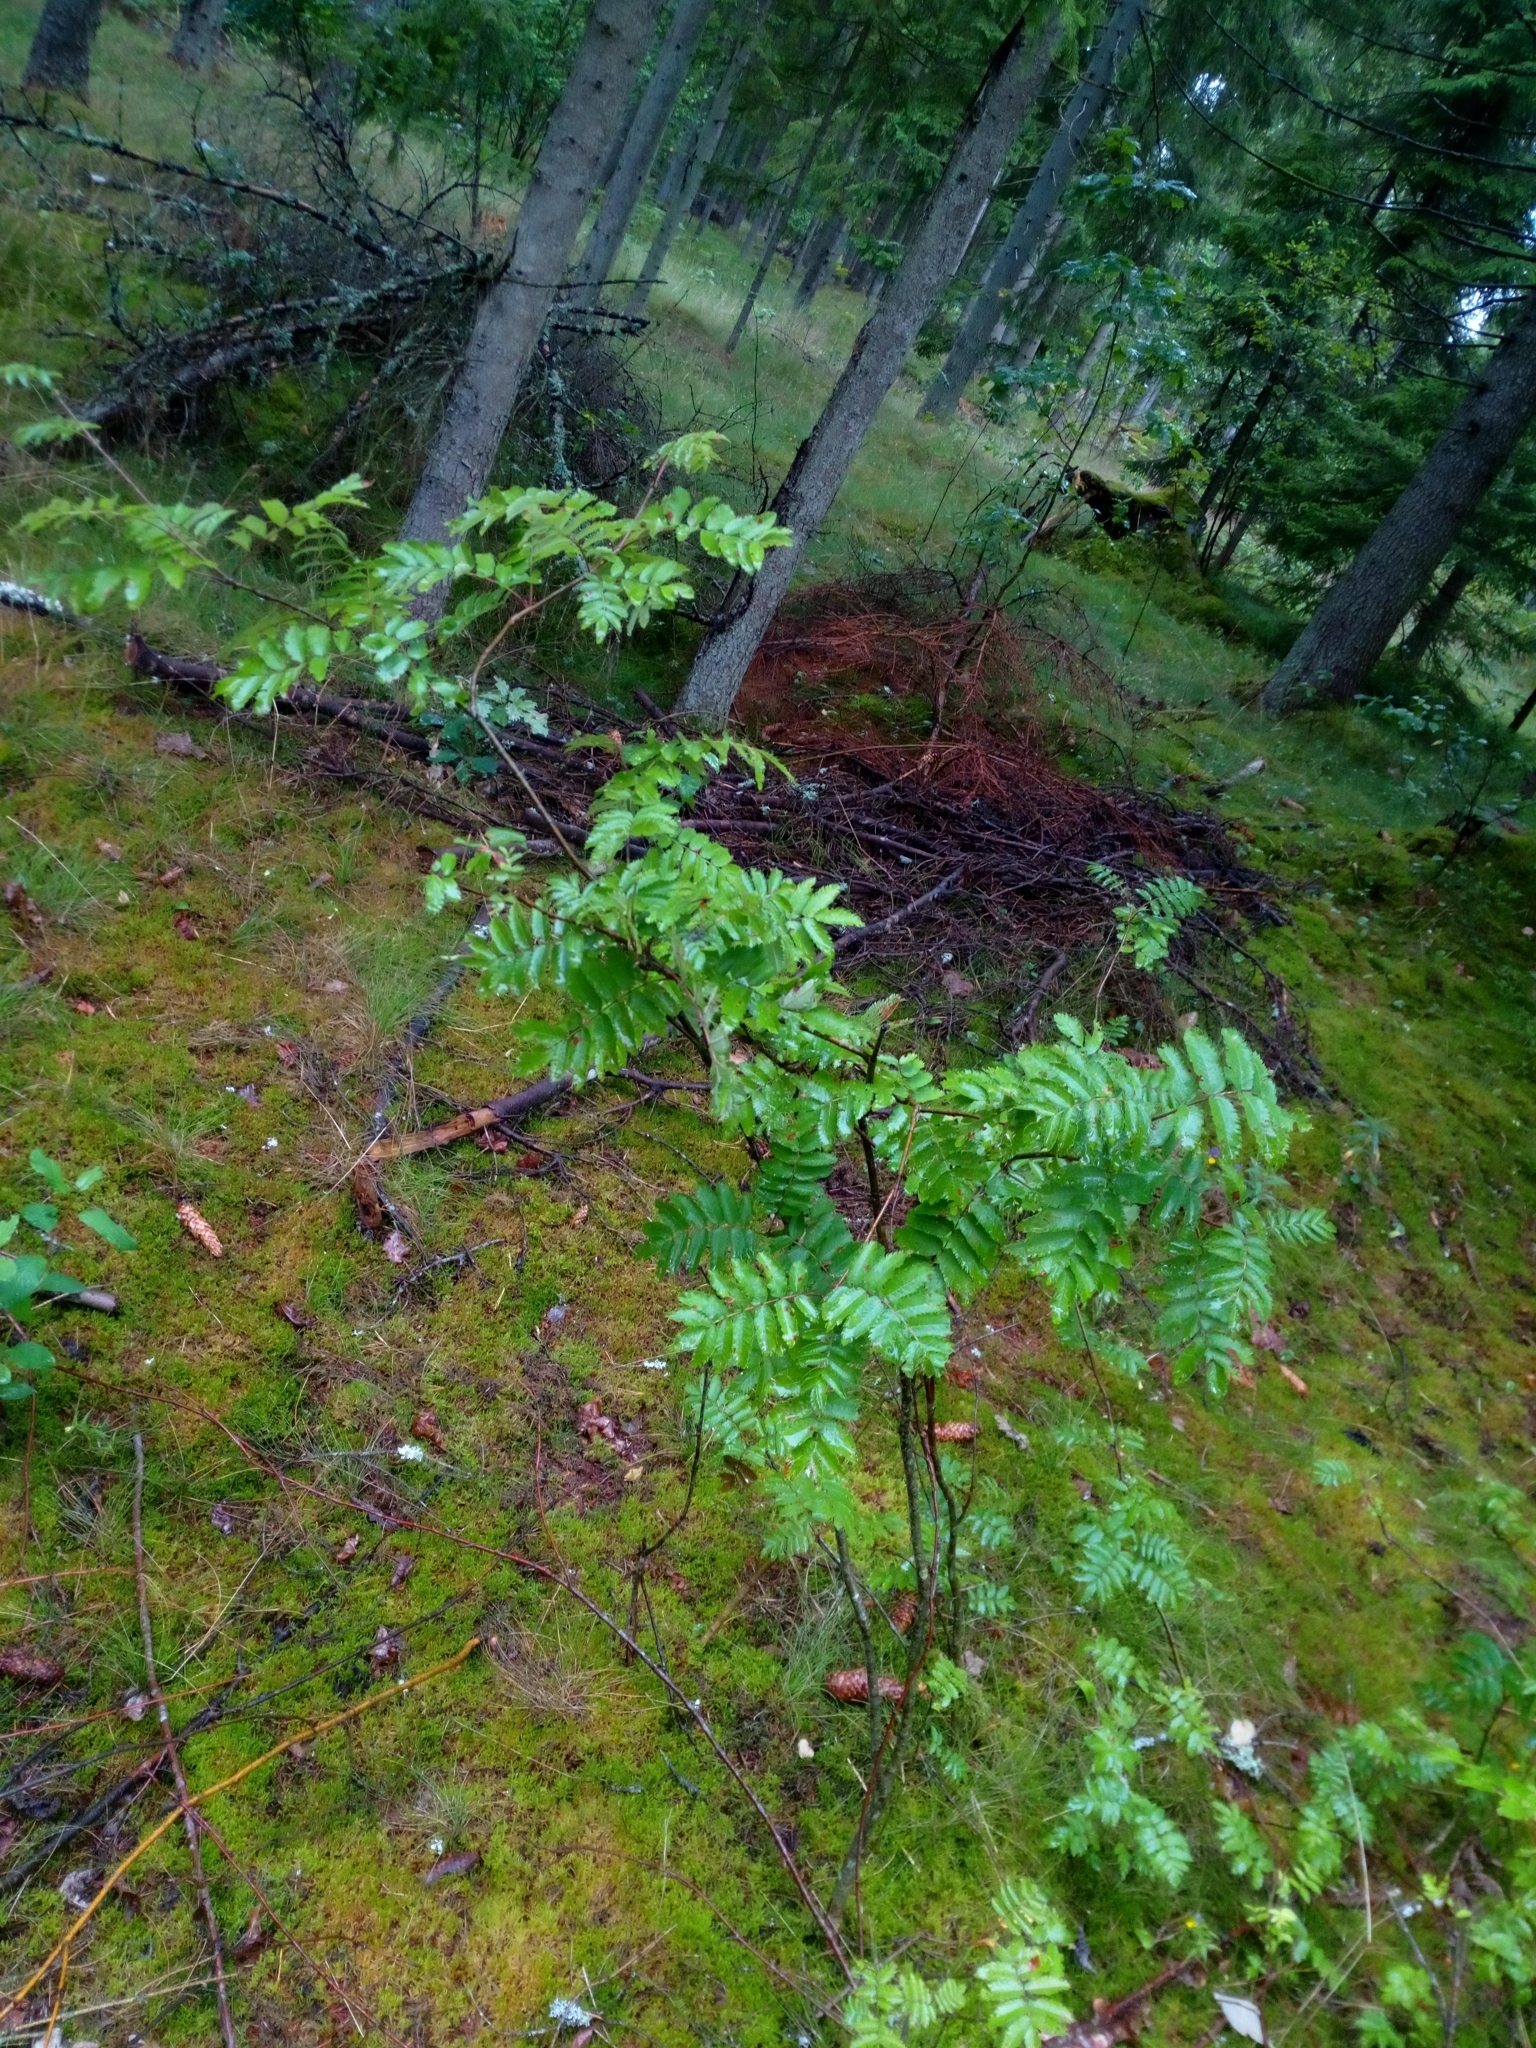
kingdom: Plantae
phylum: Tracheophyta
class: Magnoliopsida
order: Rosales
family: Rosaceae
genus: Sorbus
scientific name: Sorbus aucuparia
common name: Rowan
